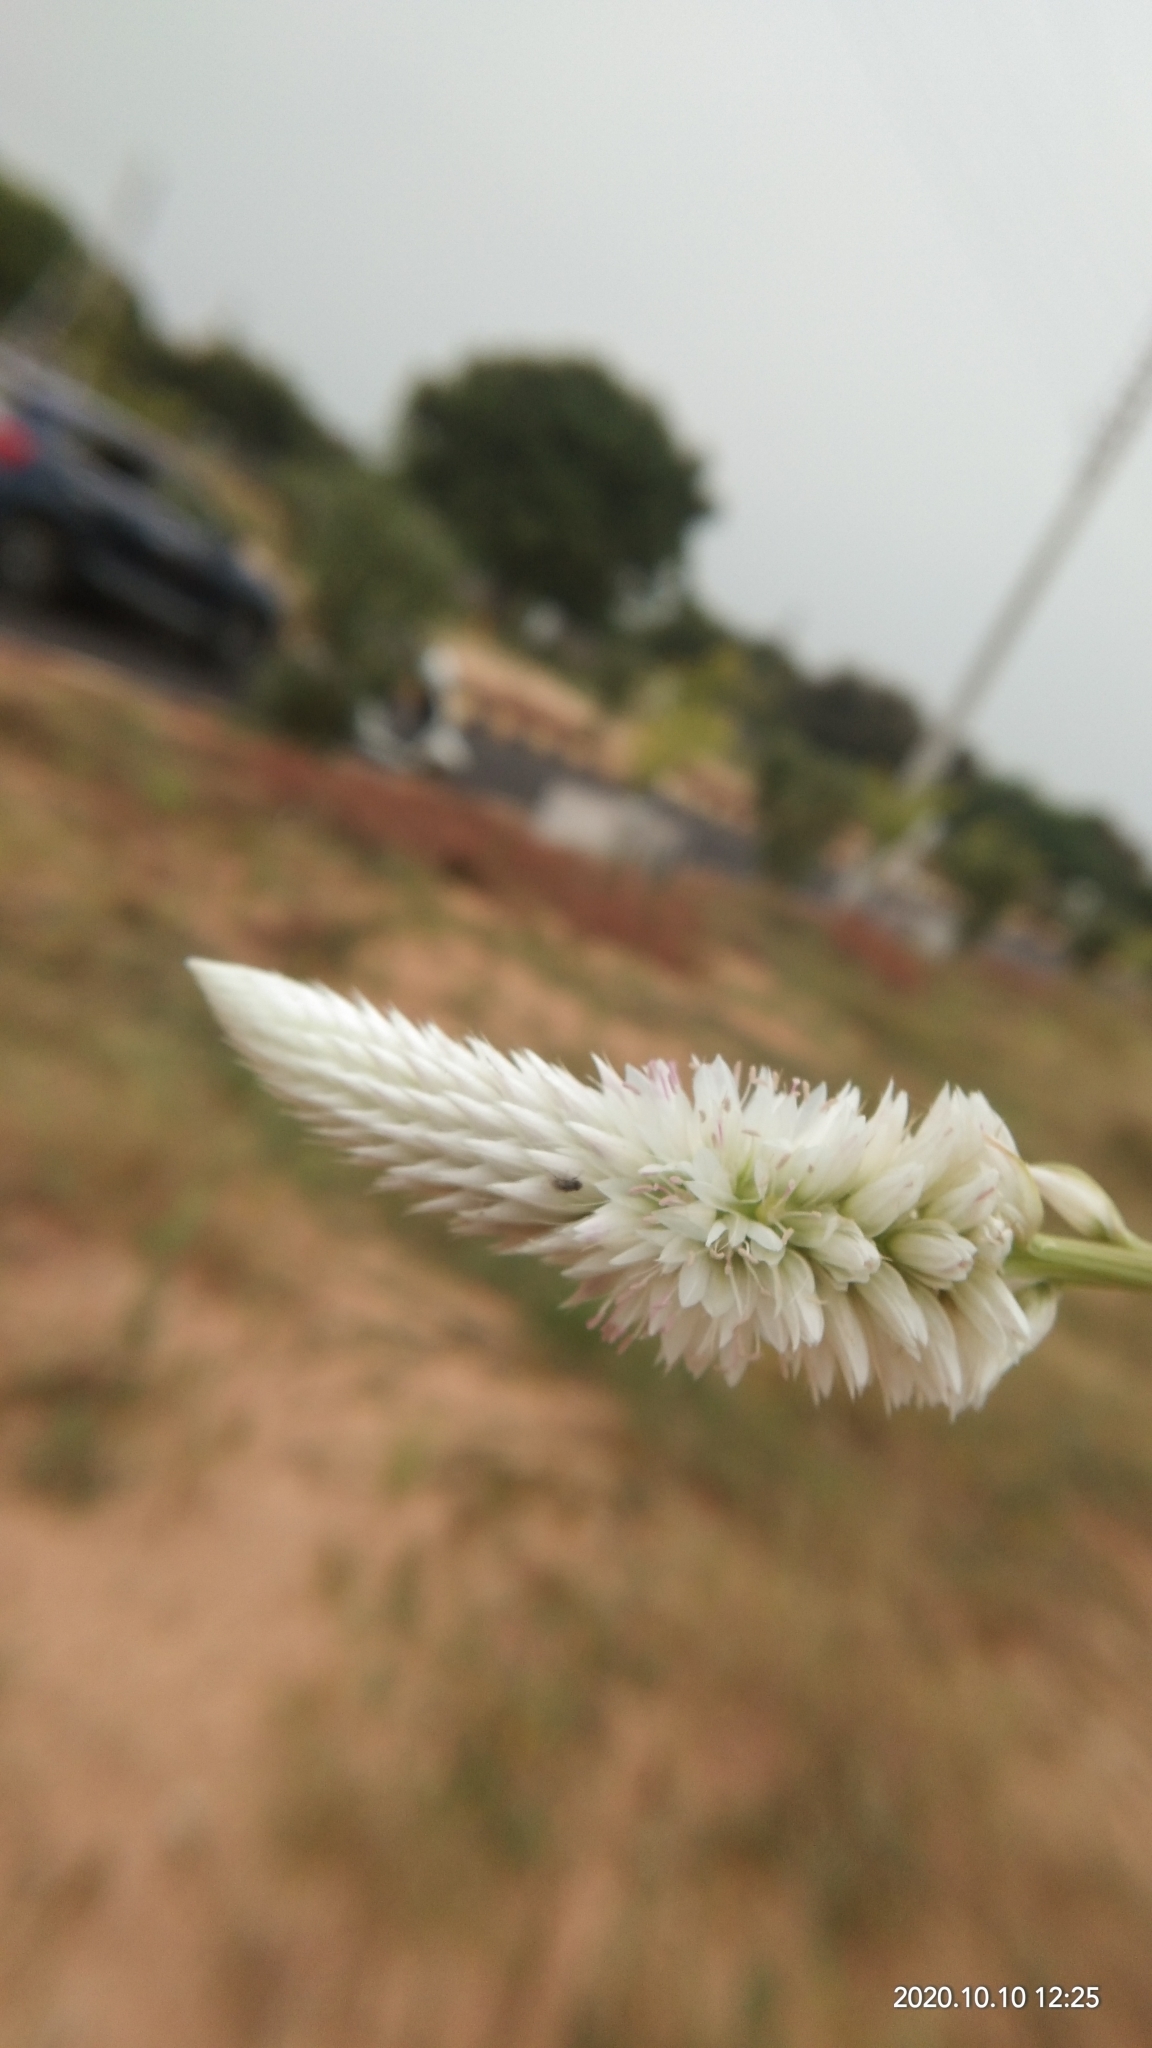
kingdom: Plantae
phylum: Tracheophyta
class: Magnoliopsida
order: Caryophyllales
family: Amaranthaceae
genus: Celosia
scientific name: Celosia argentea
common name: Feather cockscomb
